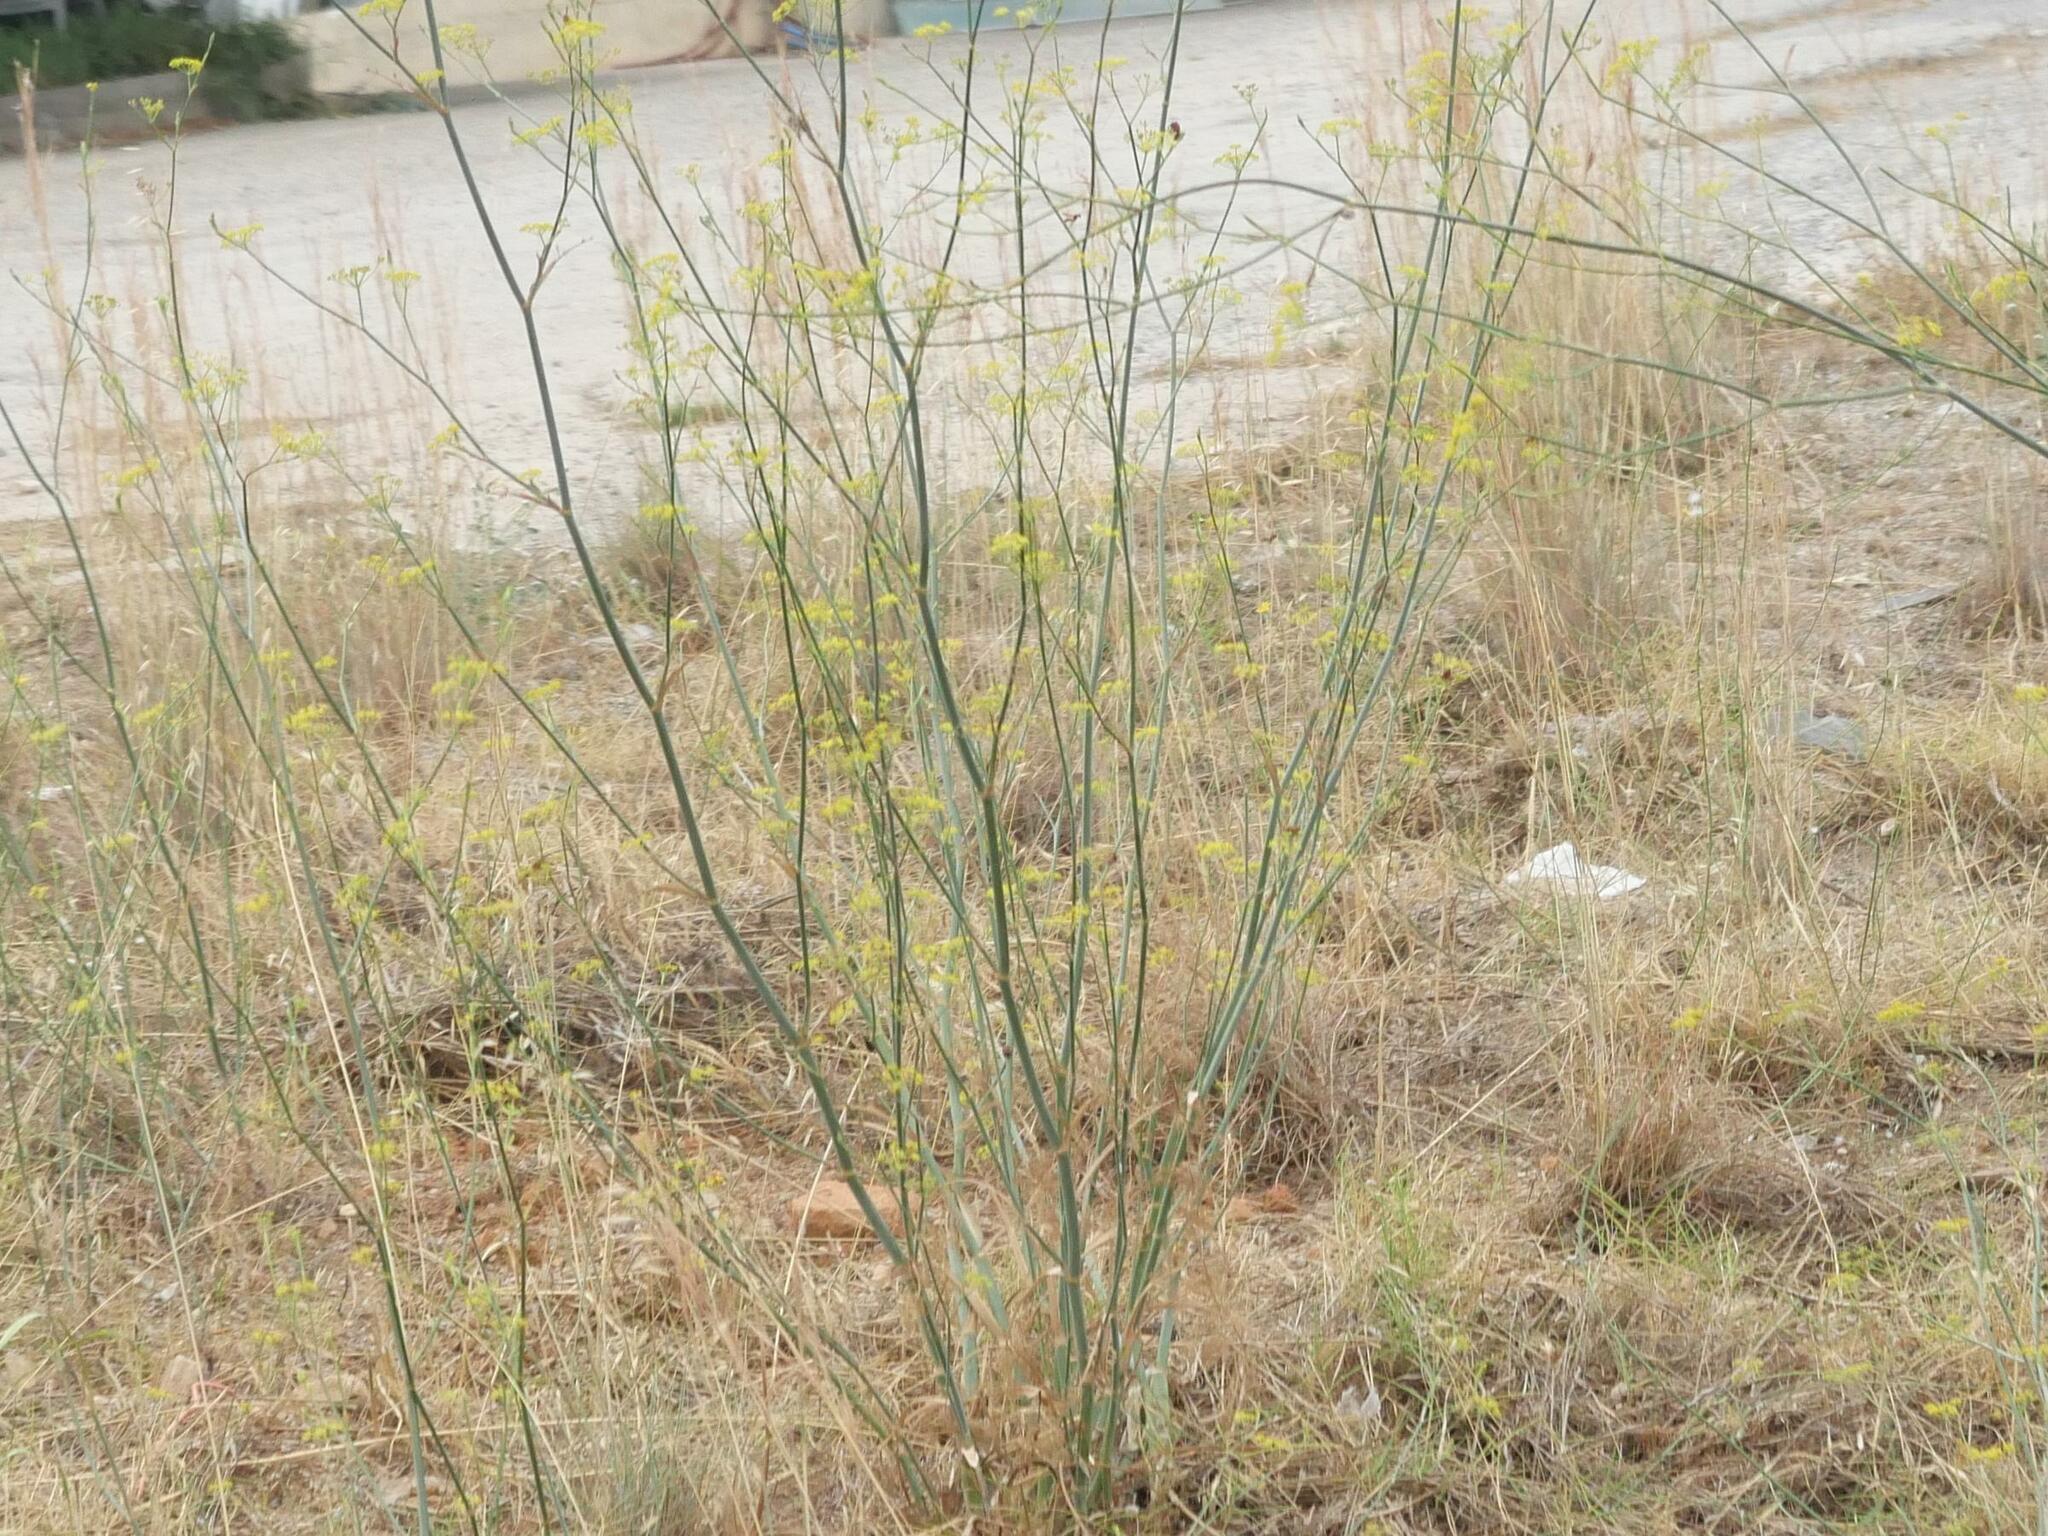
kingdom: Plantae
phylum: Tracheophyta
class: Magnoliopsida
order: Apiales
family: Apiaceae
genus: Foeniculum
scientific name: Foeniculum vulgare
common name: Fennel
